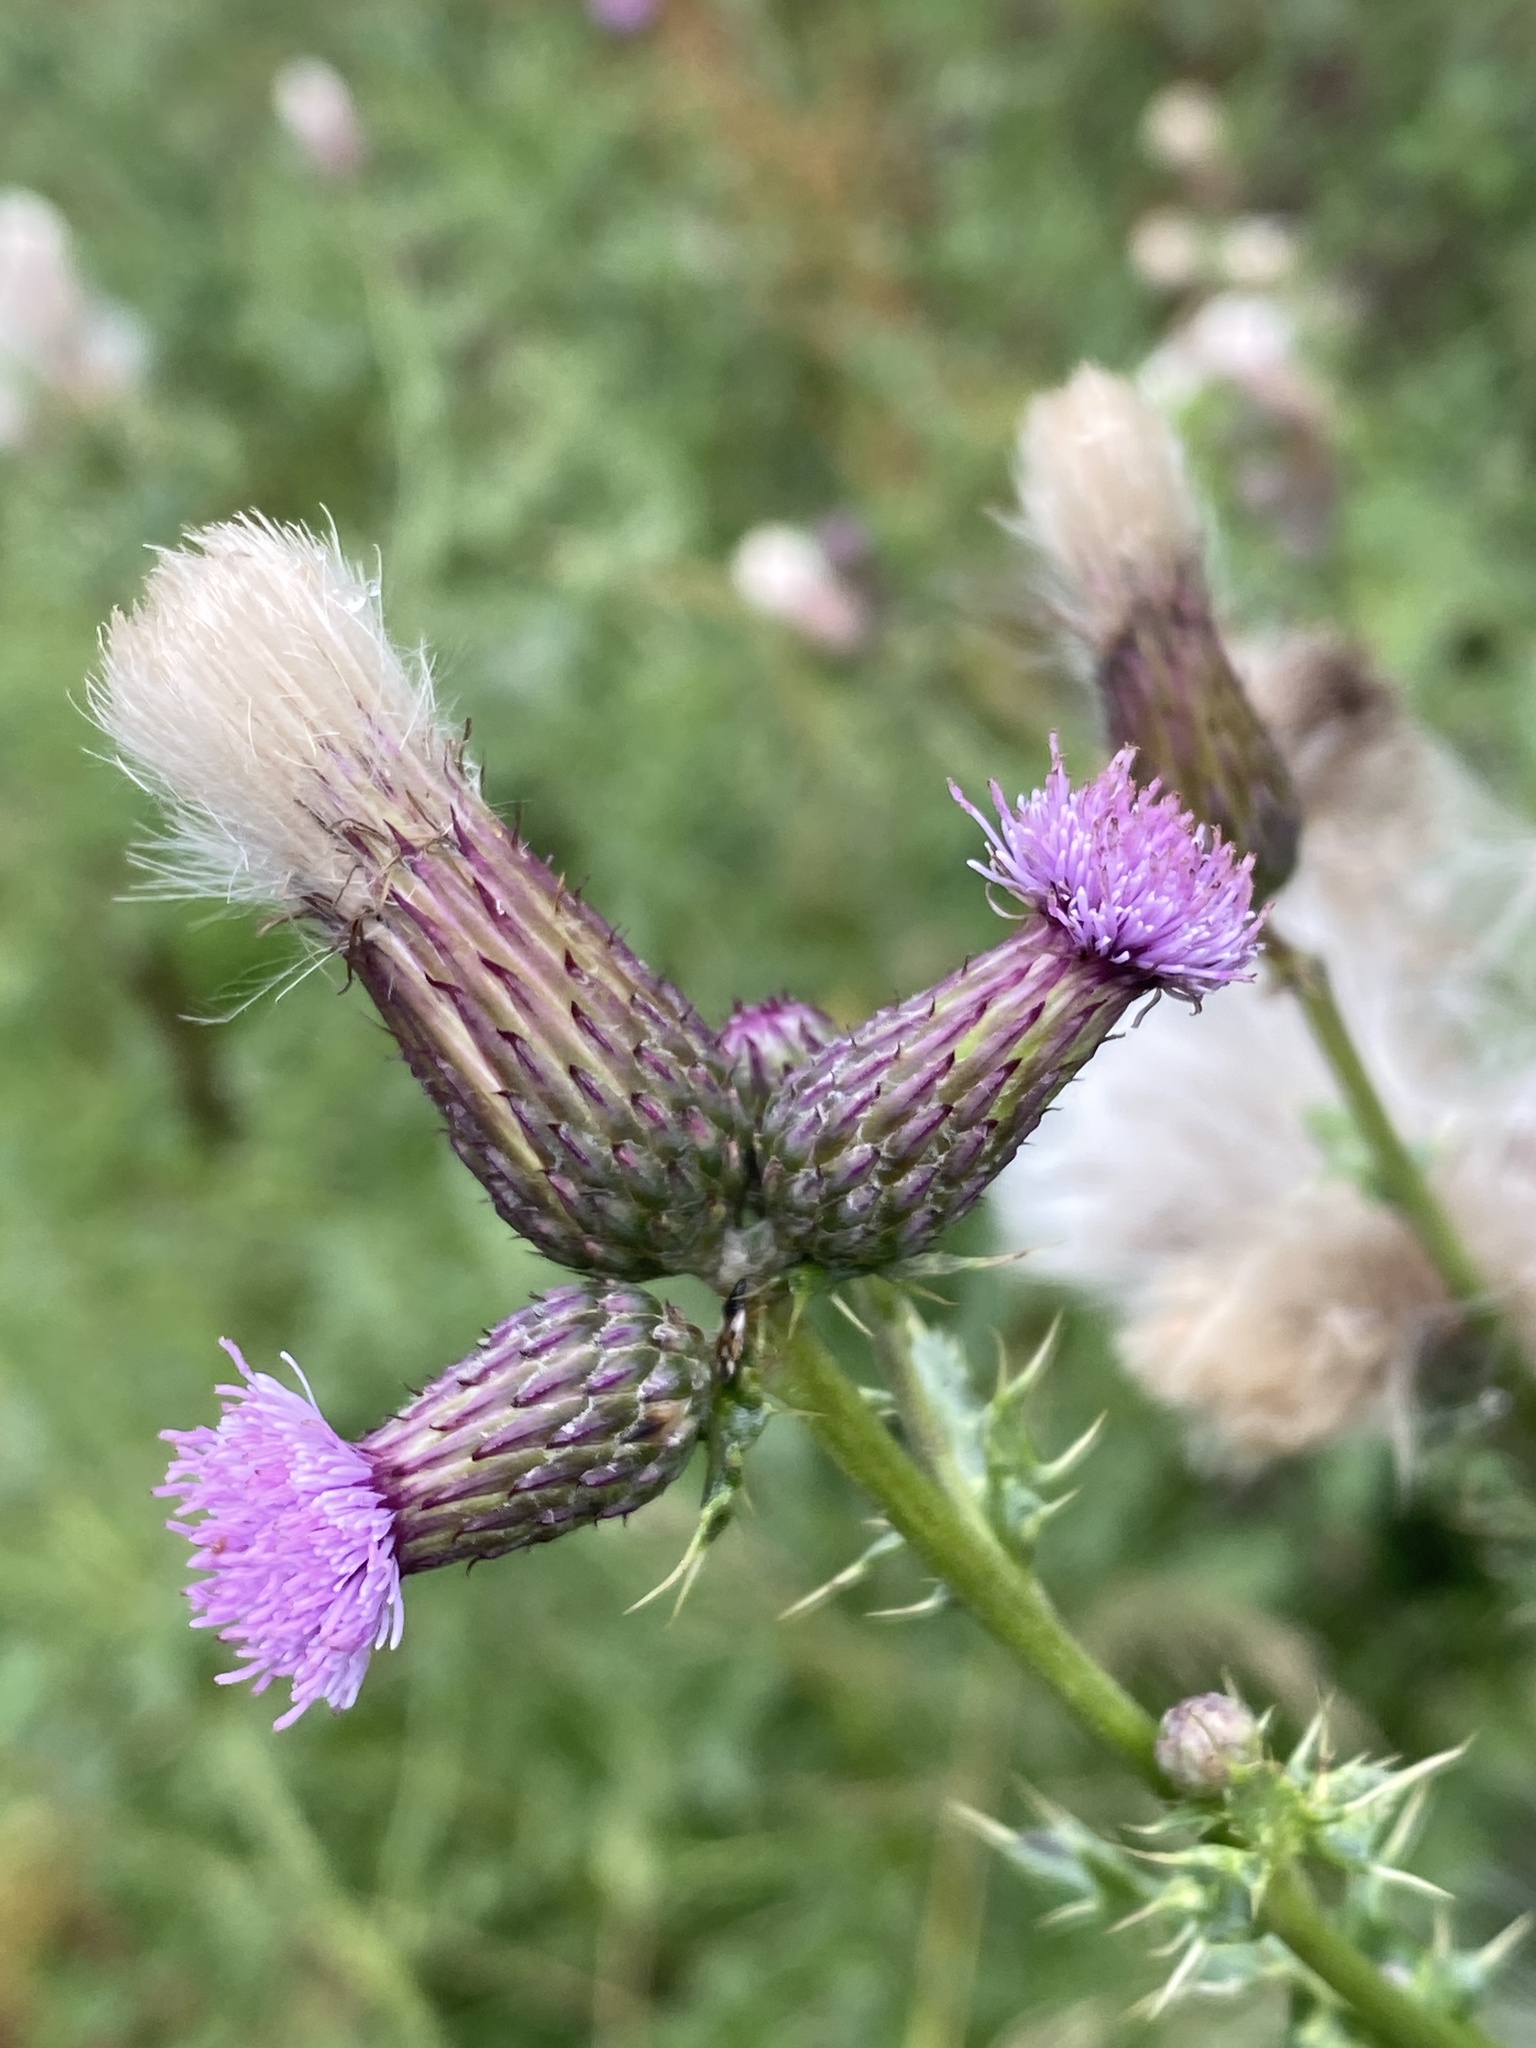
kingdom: Plantae
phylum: Tracheophyta
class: Magnoliopsida
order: Asterales
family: Asteraceae
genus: Cirsium
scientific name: Cirsium arvense
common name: Creeping thistle
